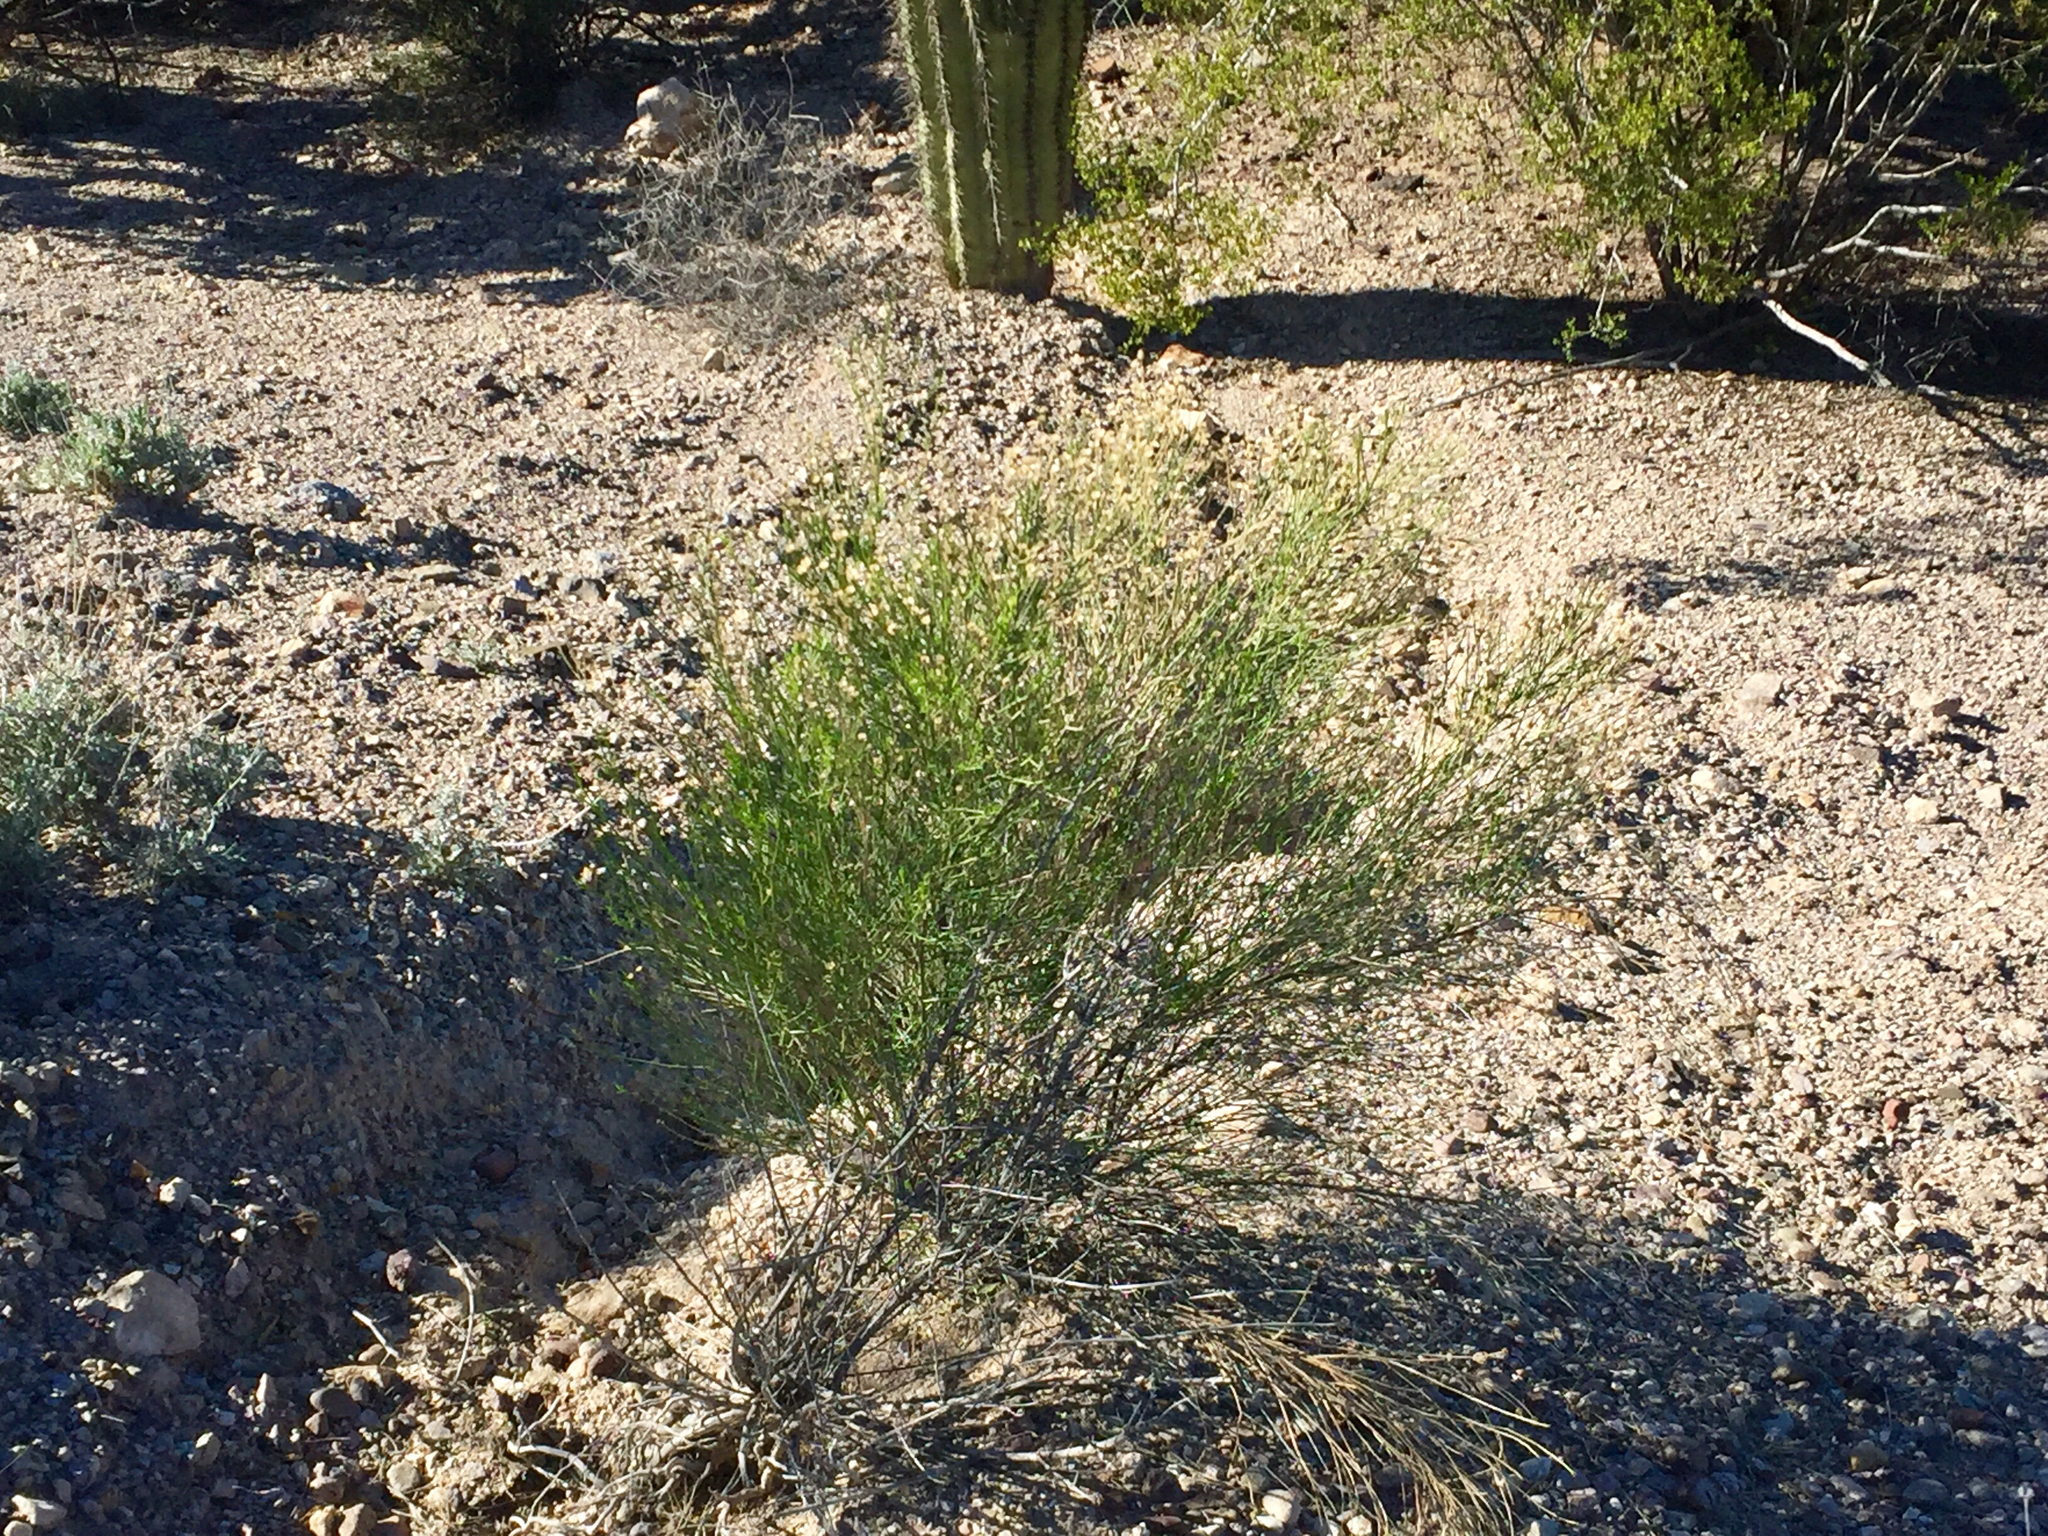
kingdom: Plantae
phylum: Tracheophyta
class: Magnoliopsida
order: Asterales
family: Asteraceae
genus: Baccharis
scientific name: Baccharis sarothroides
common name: Desert-broom
